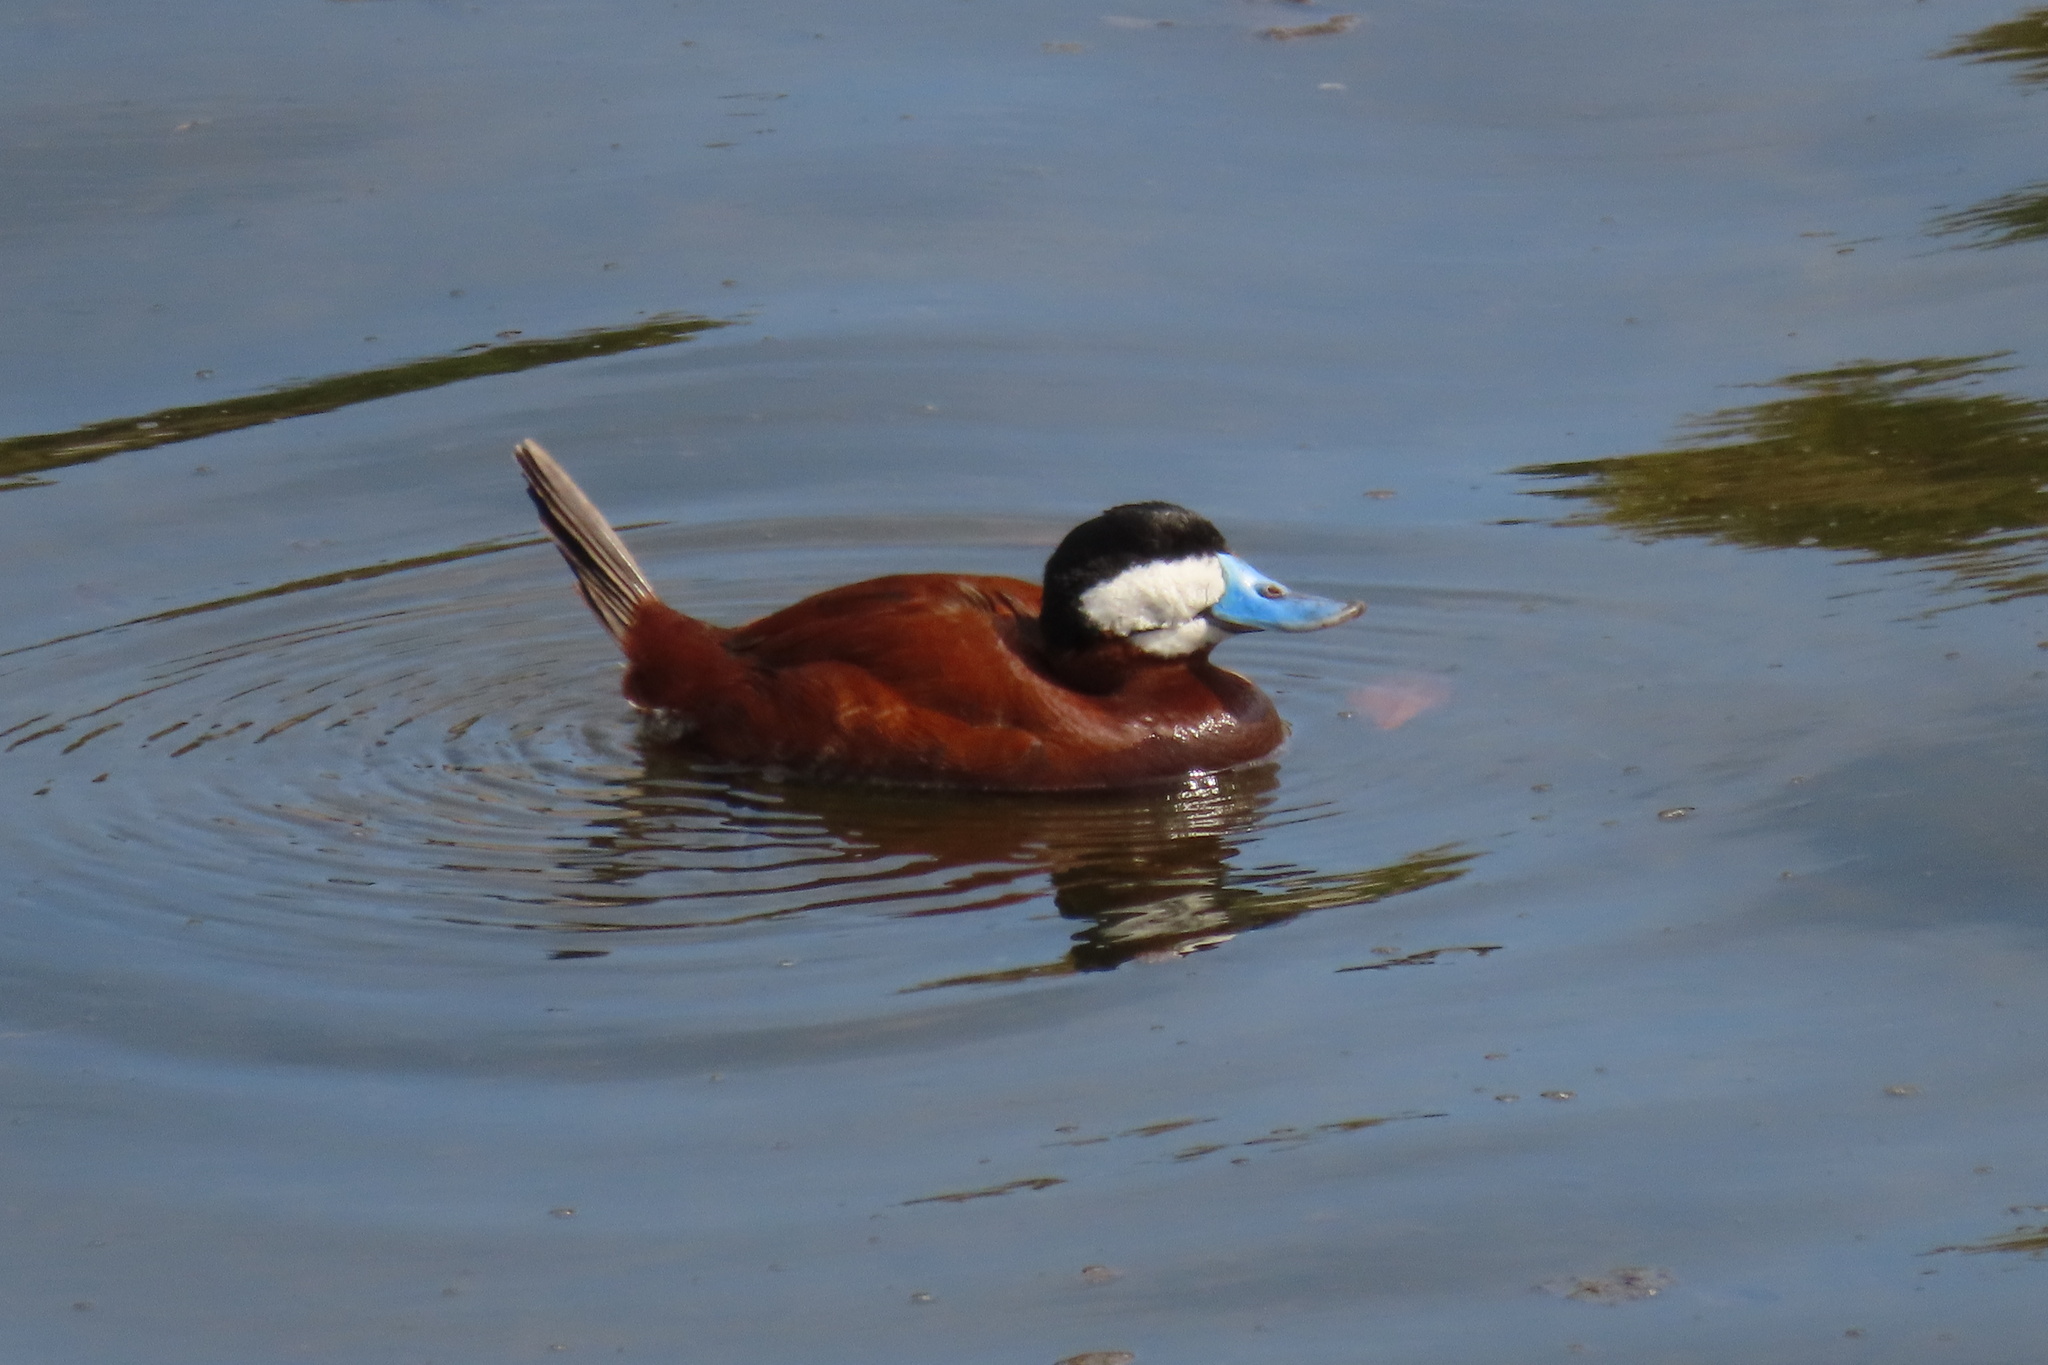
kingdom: Animalia
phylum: Chordata
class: Aves
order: Anseriformes
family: Anatidae
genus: Oxyura
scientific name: Oxyura jamaicensis
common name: Ruddy duck
